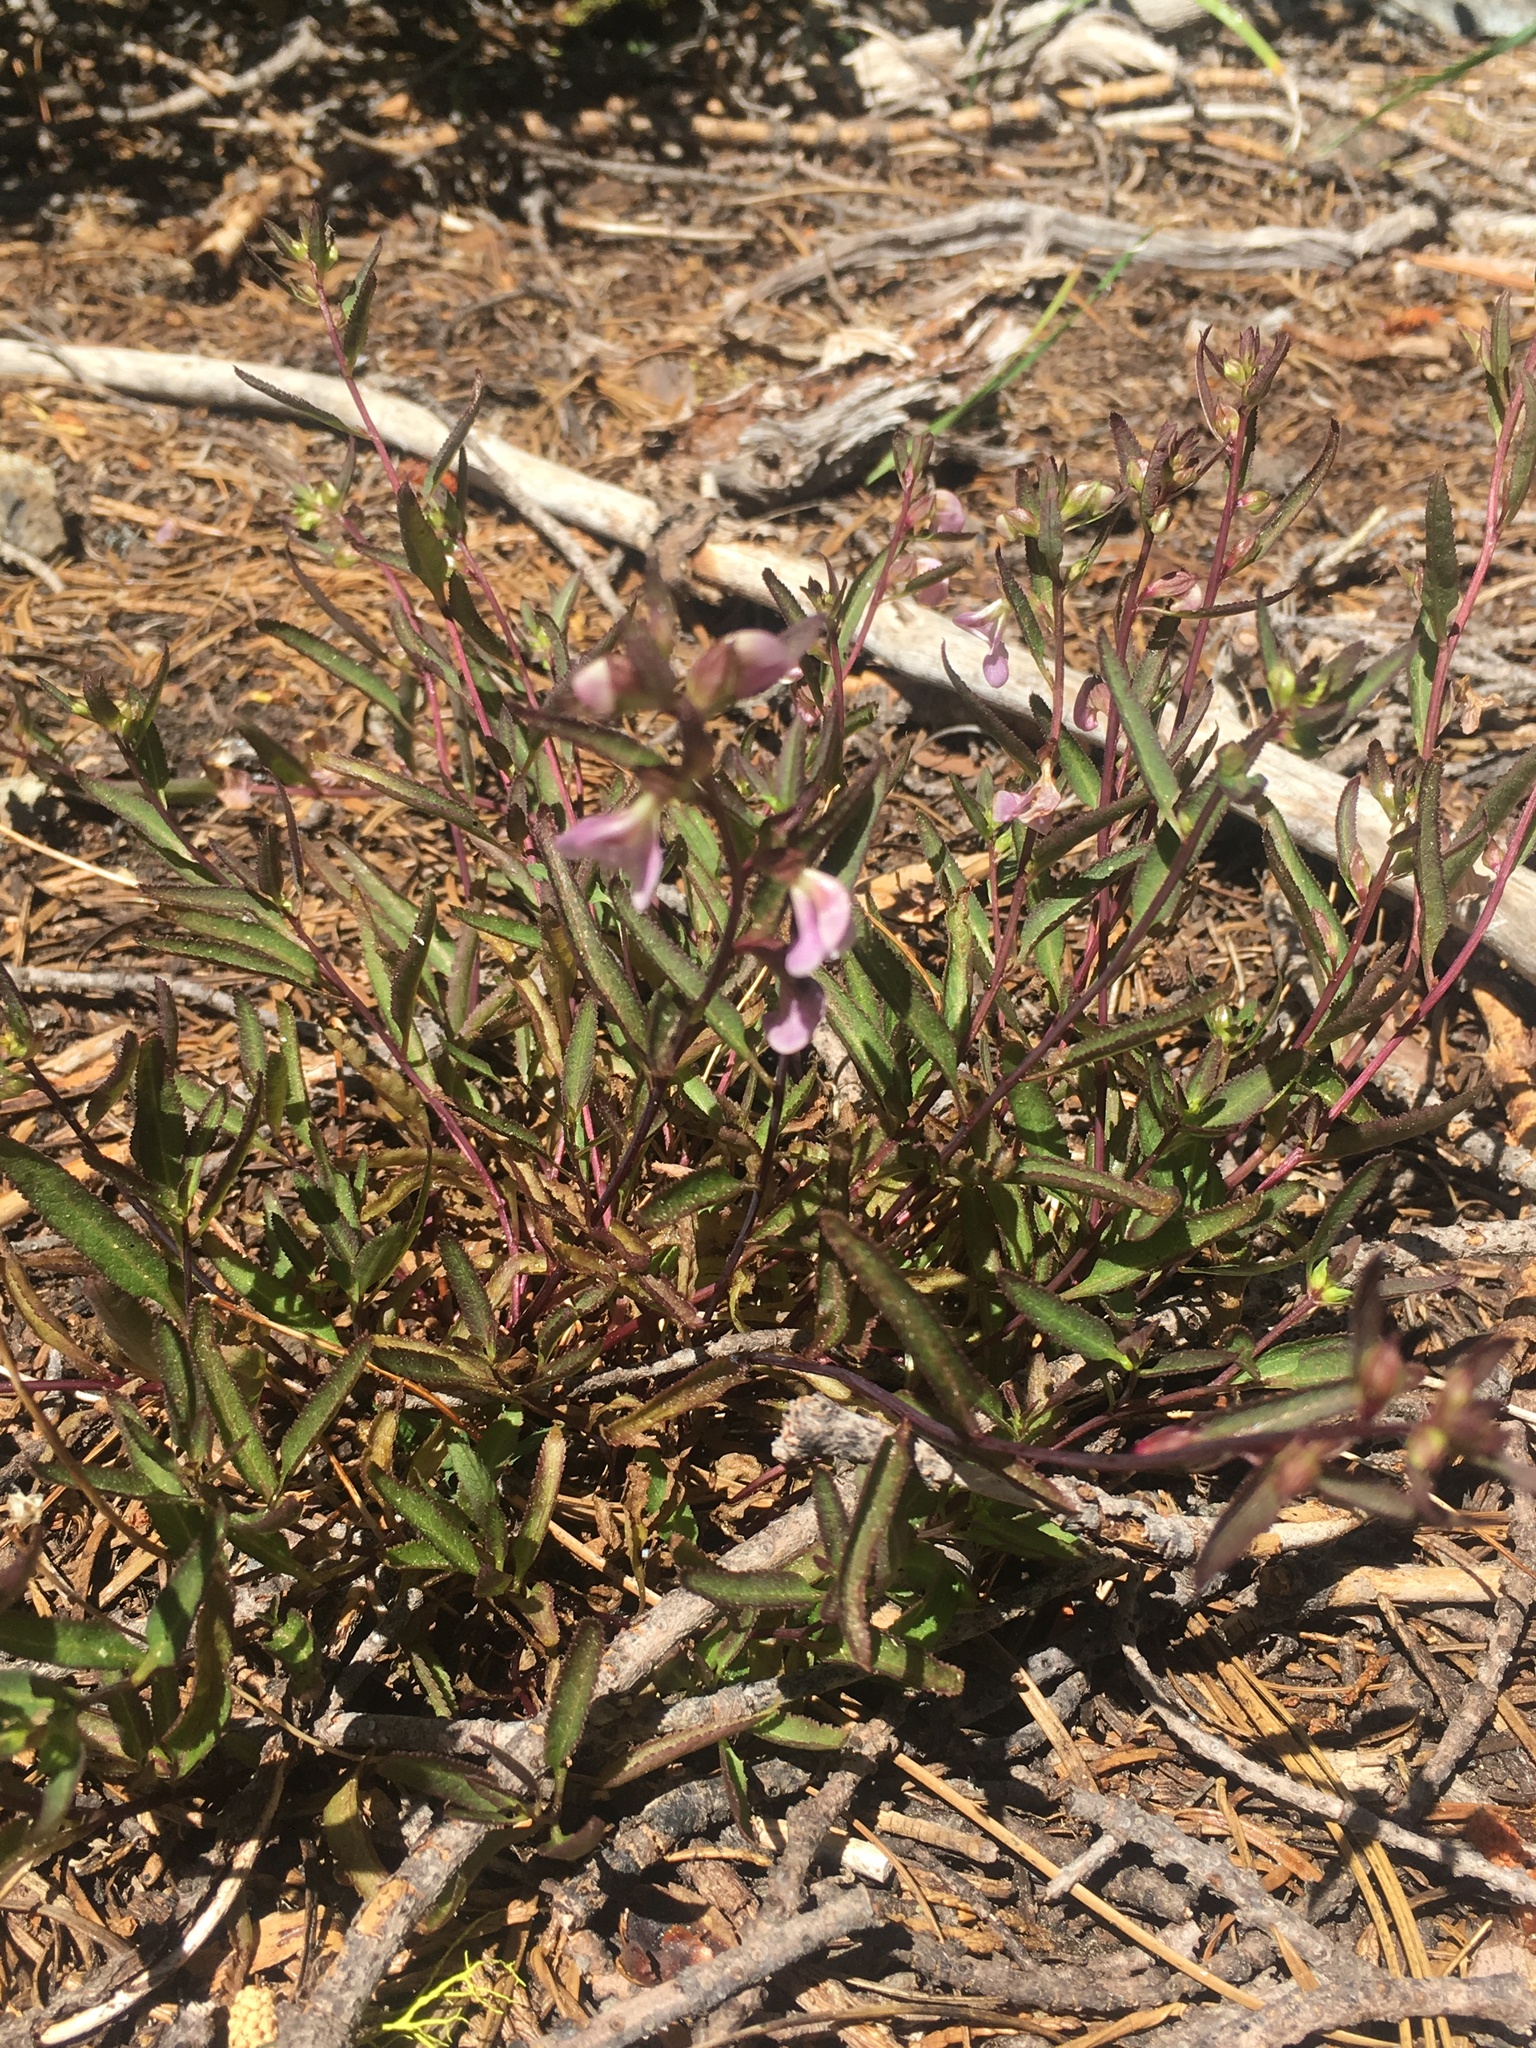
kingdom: Plantae
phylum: Tracheophyta
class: Magnoliopsida
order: Lamiales
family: Orobanchaceae
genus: Pedicularis
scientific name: Pedicularis racemosa
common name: Leafy lousewort
